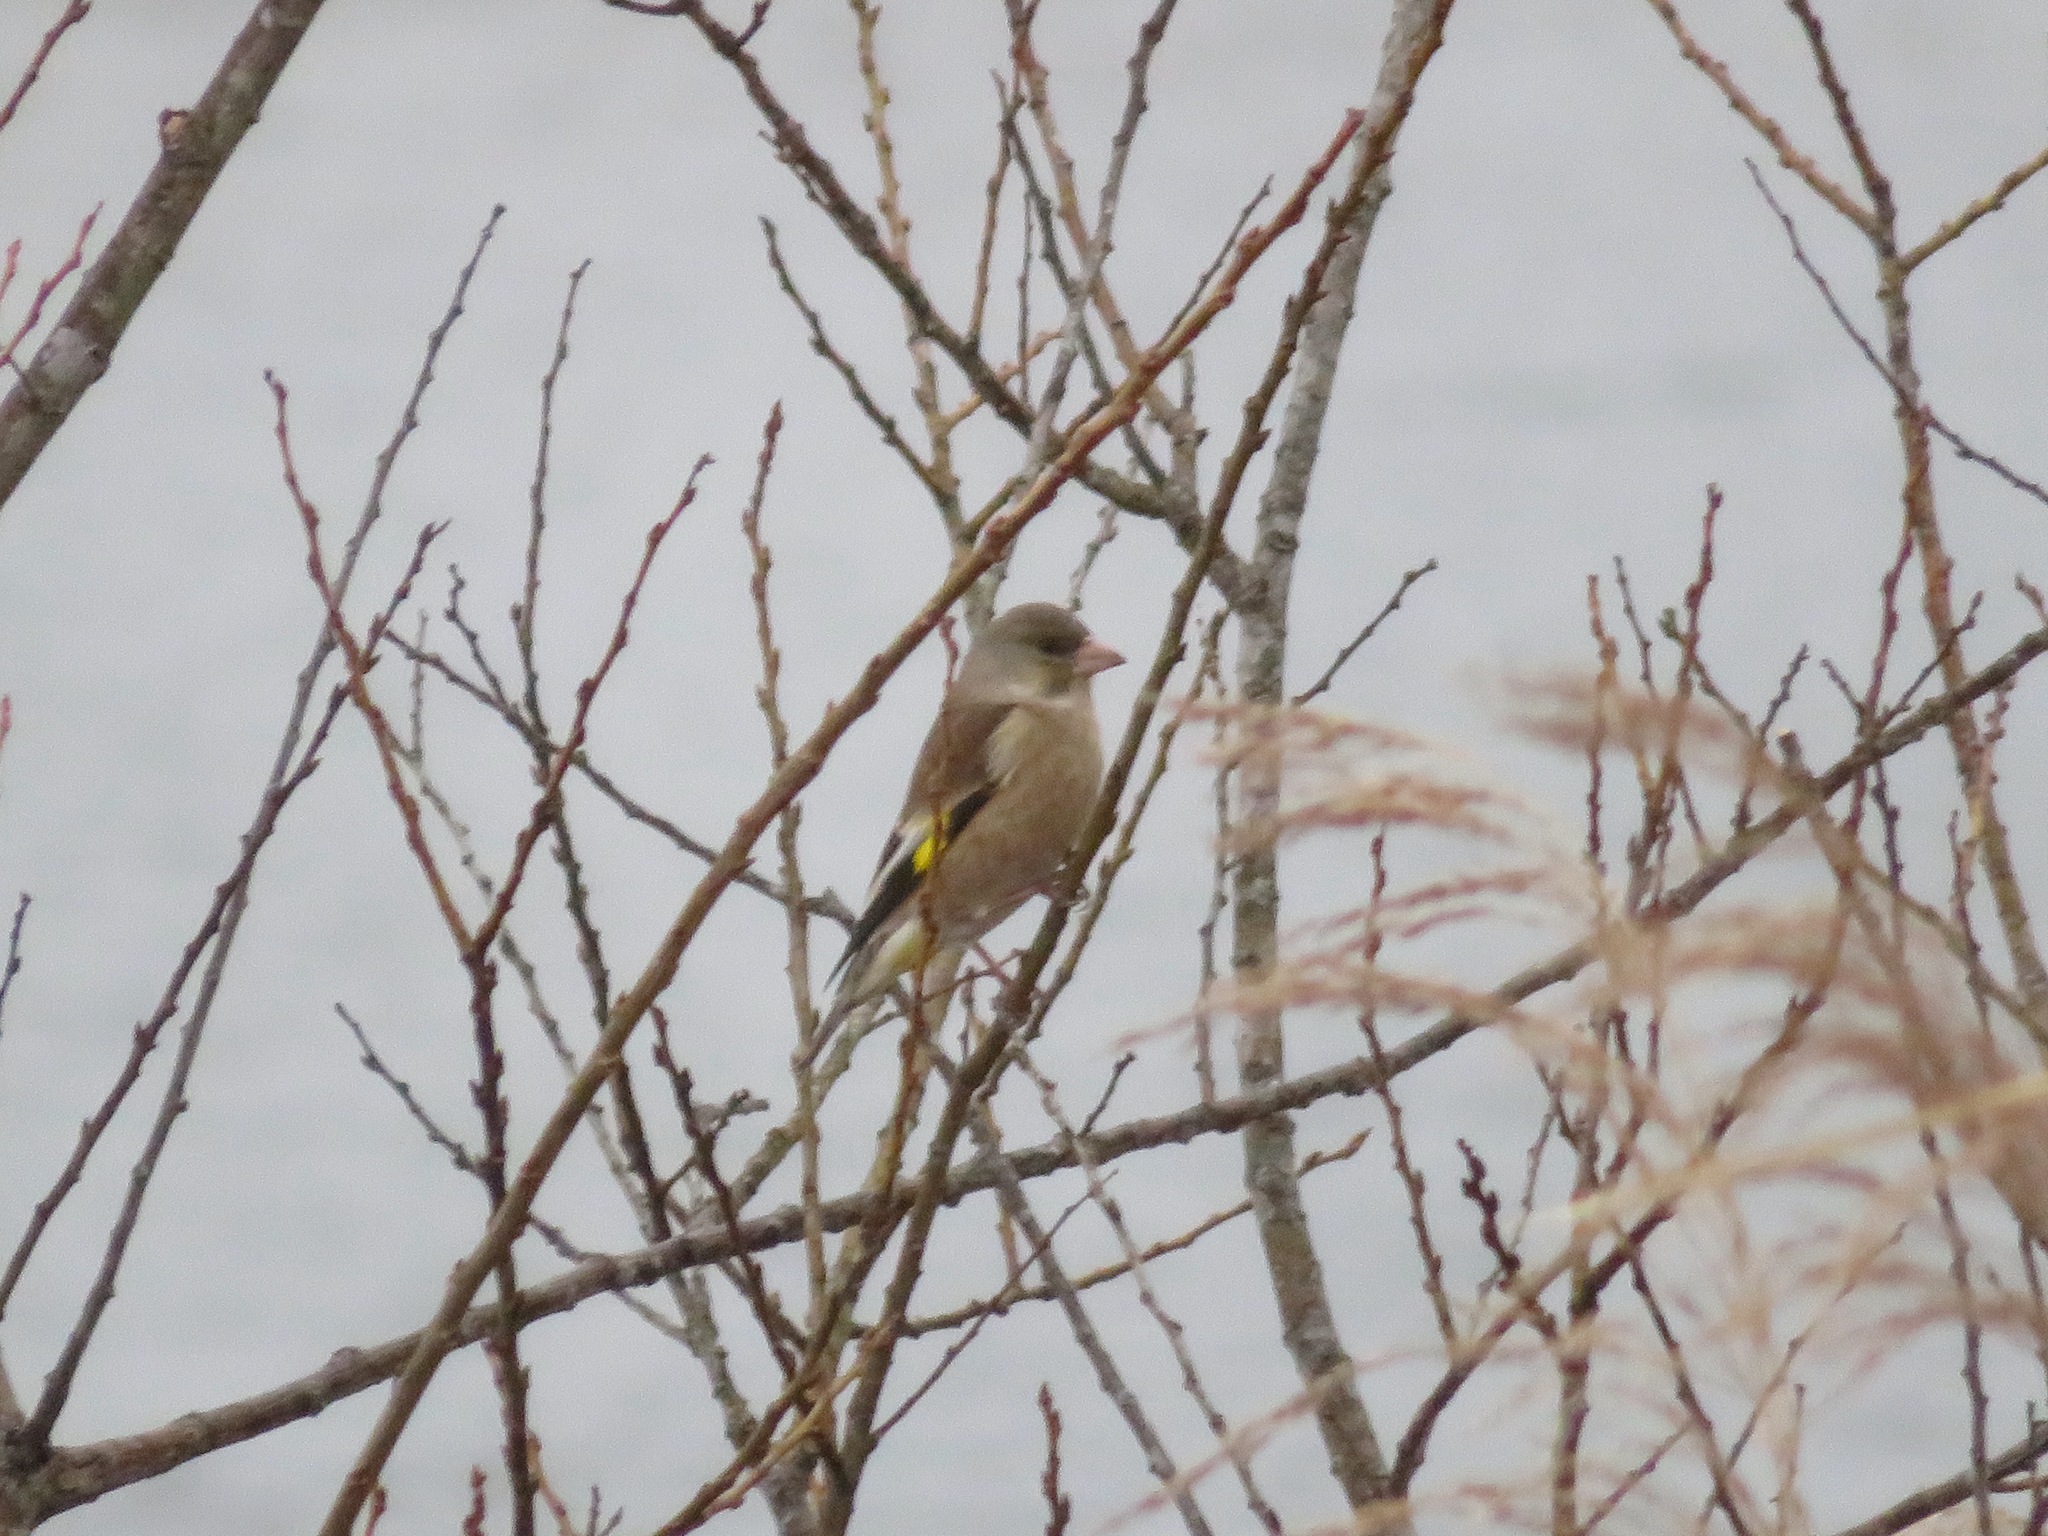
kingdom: Plantae
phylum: Tracheophyta
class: Liliopsida
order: Poales
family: Poaceae
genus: Chloris
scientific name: Chloris sinica
